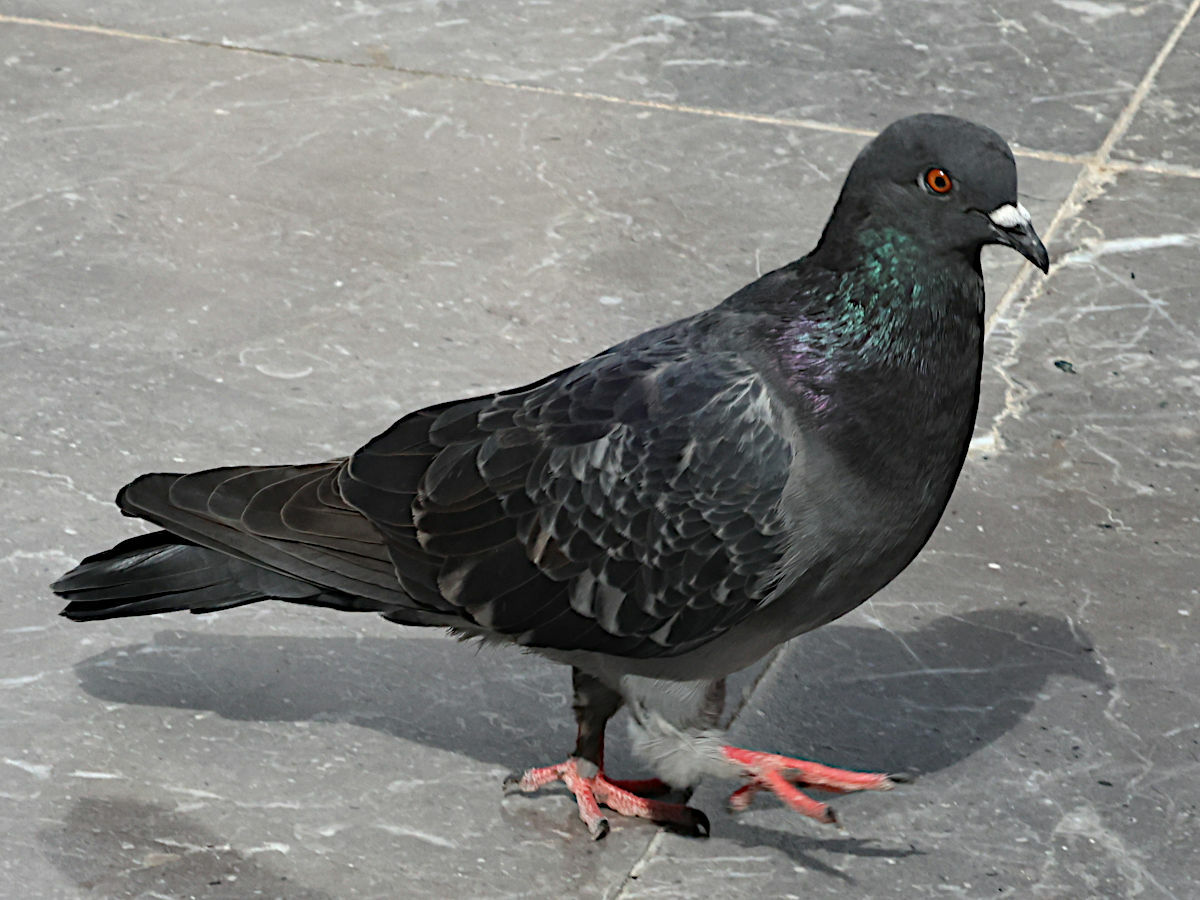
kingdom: Animalia
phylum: Chordata
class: Aves
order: Columbiformes
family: Columbidae
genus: Columba
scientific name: Columba livia
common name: Rock pigeon
